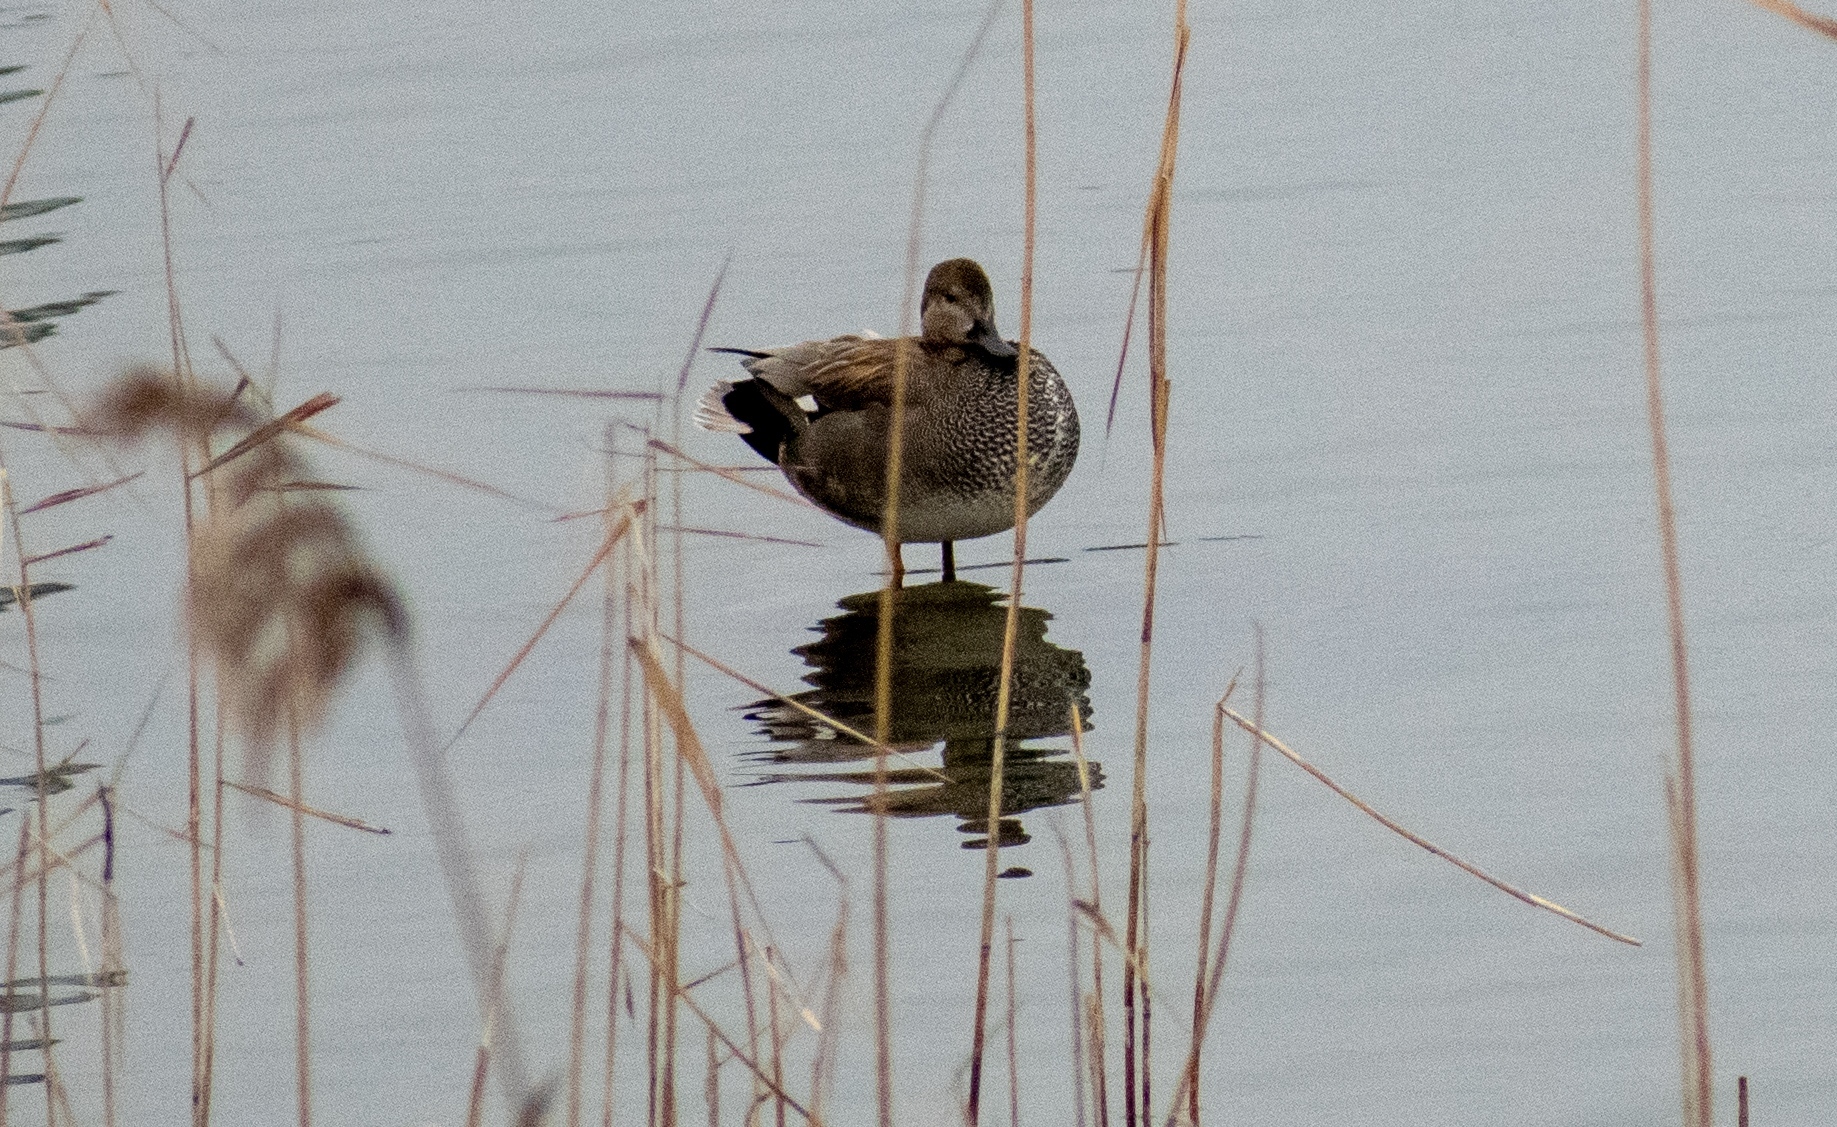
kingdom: Animalia
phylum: Chordata
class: Aves
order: Anseriformes
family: Anatidae
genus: Mareca
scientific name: Mareca strepera
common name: Gadwall
